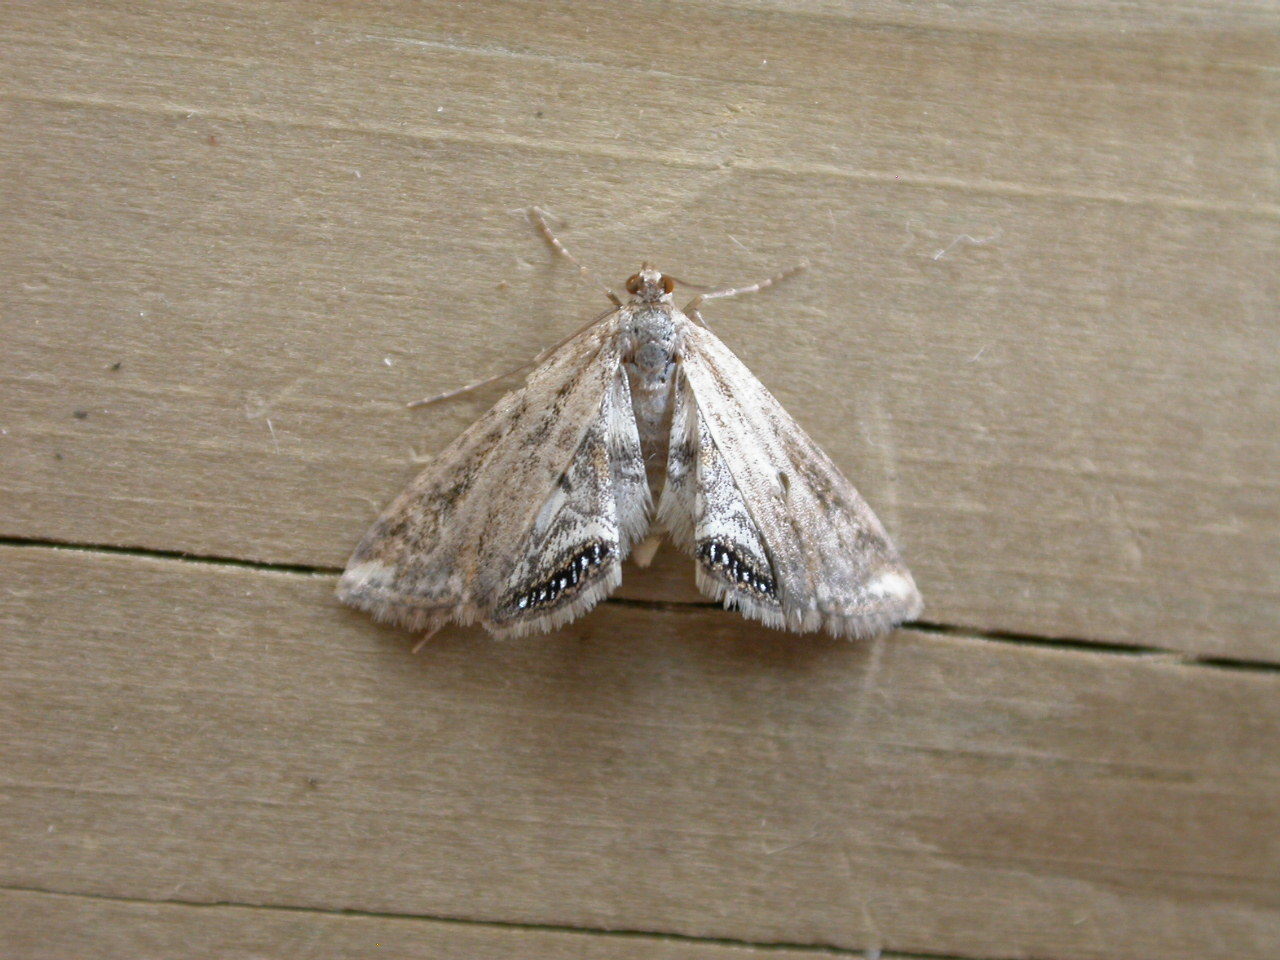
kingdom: Animalia
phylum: Arthropoda
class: Insecta
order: Lepidoptera
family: Crambidae
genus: Cataclysta
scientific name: Cataclysta lemnata
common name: Small china-mark
